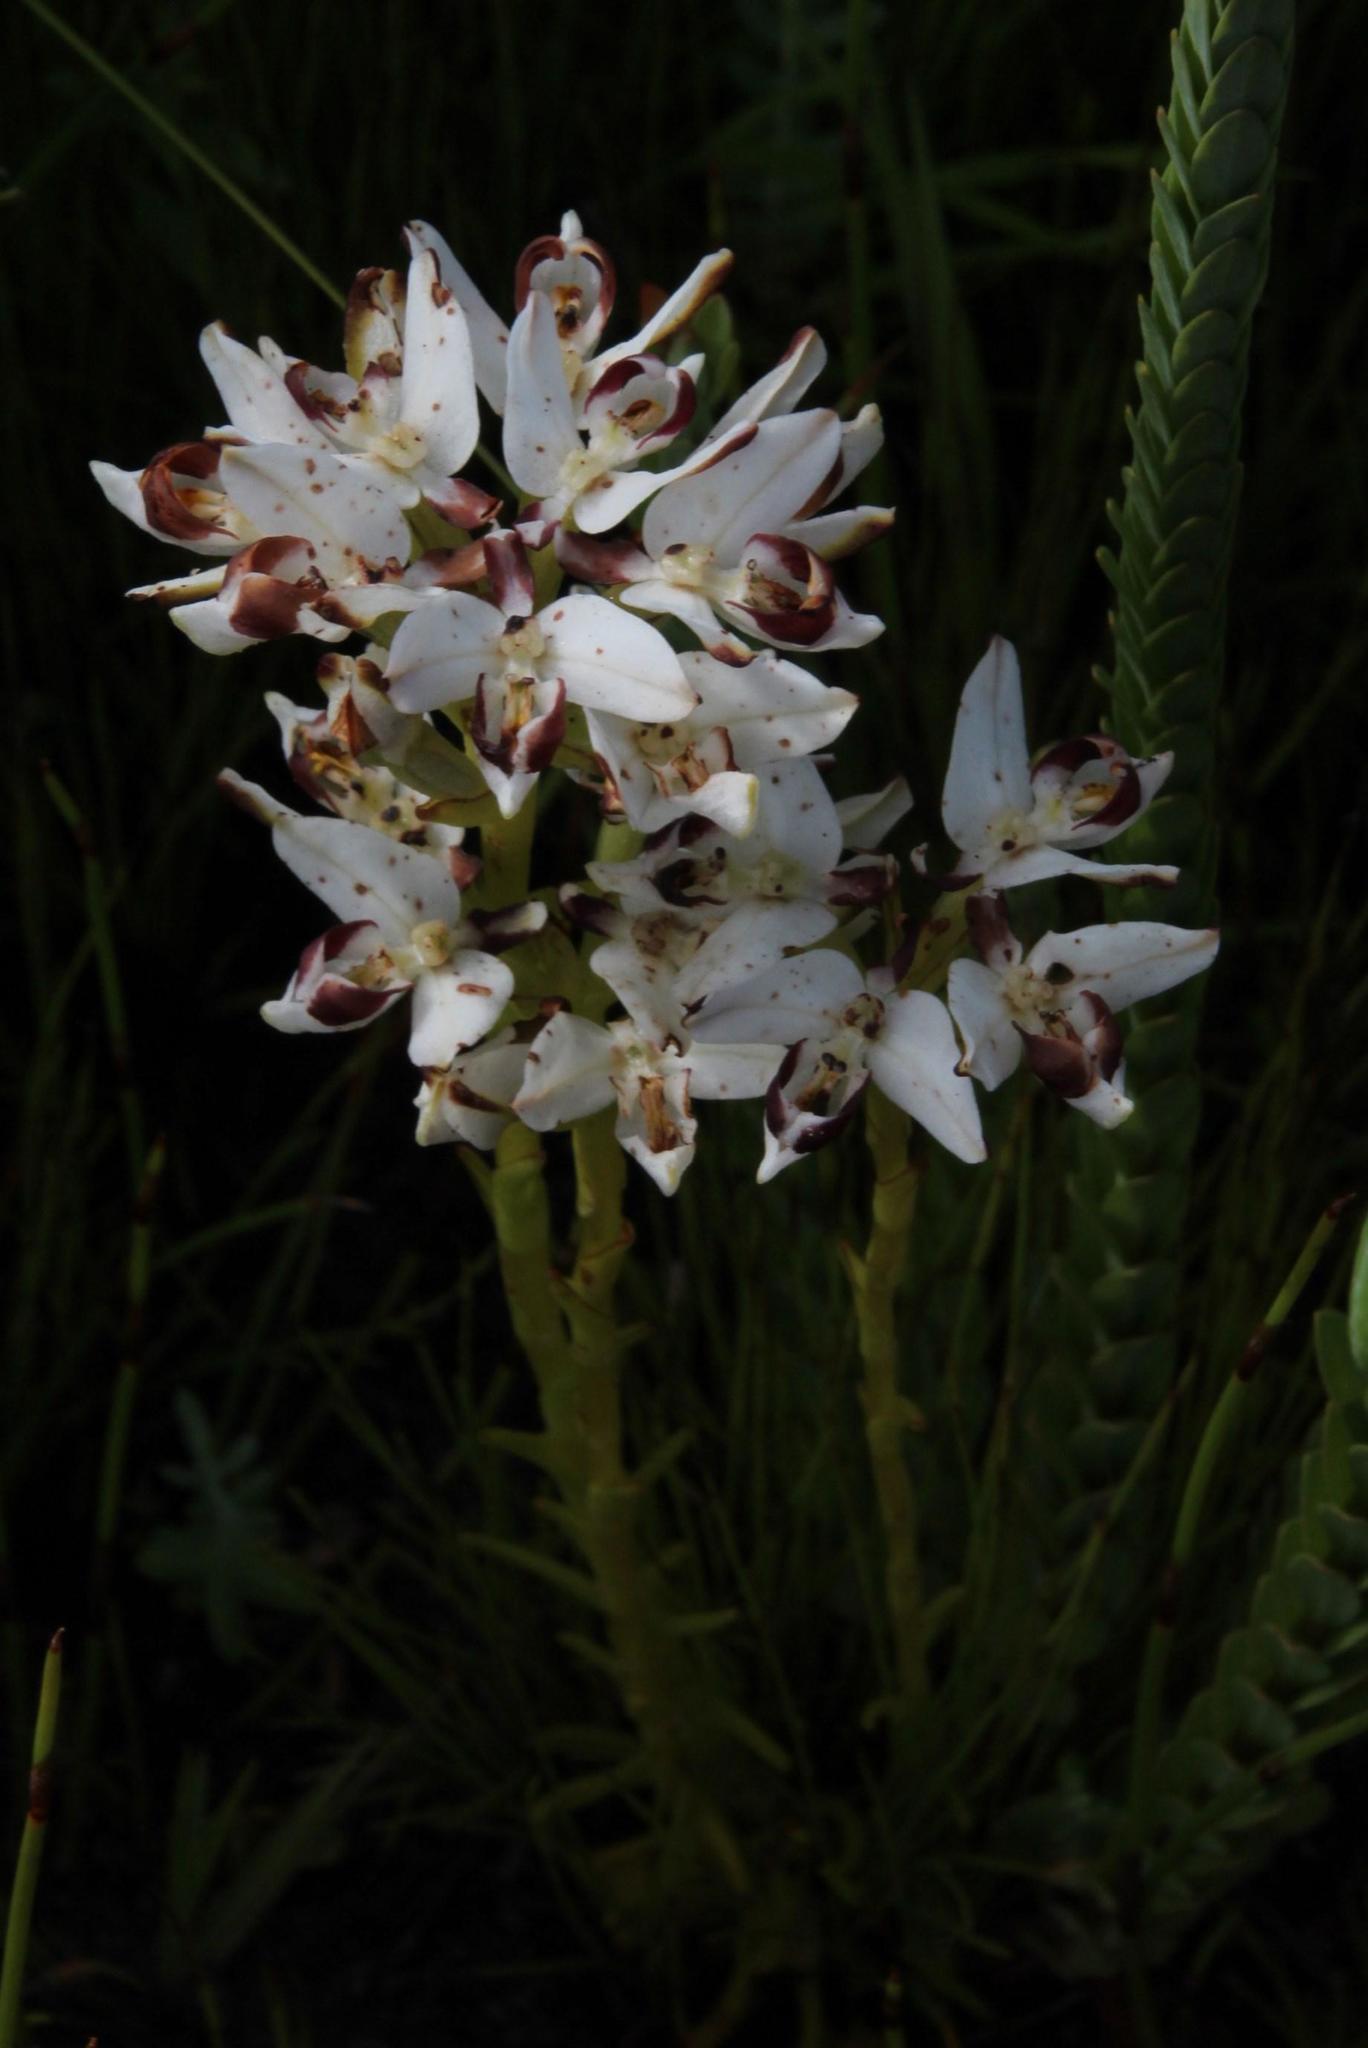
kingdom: Plantae
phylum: Tracheophyta
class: Liliopsida
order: Asparagales
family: Orchidaceae
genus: Disa
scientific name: Disa bivalvata
